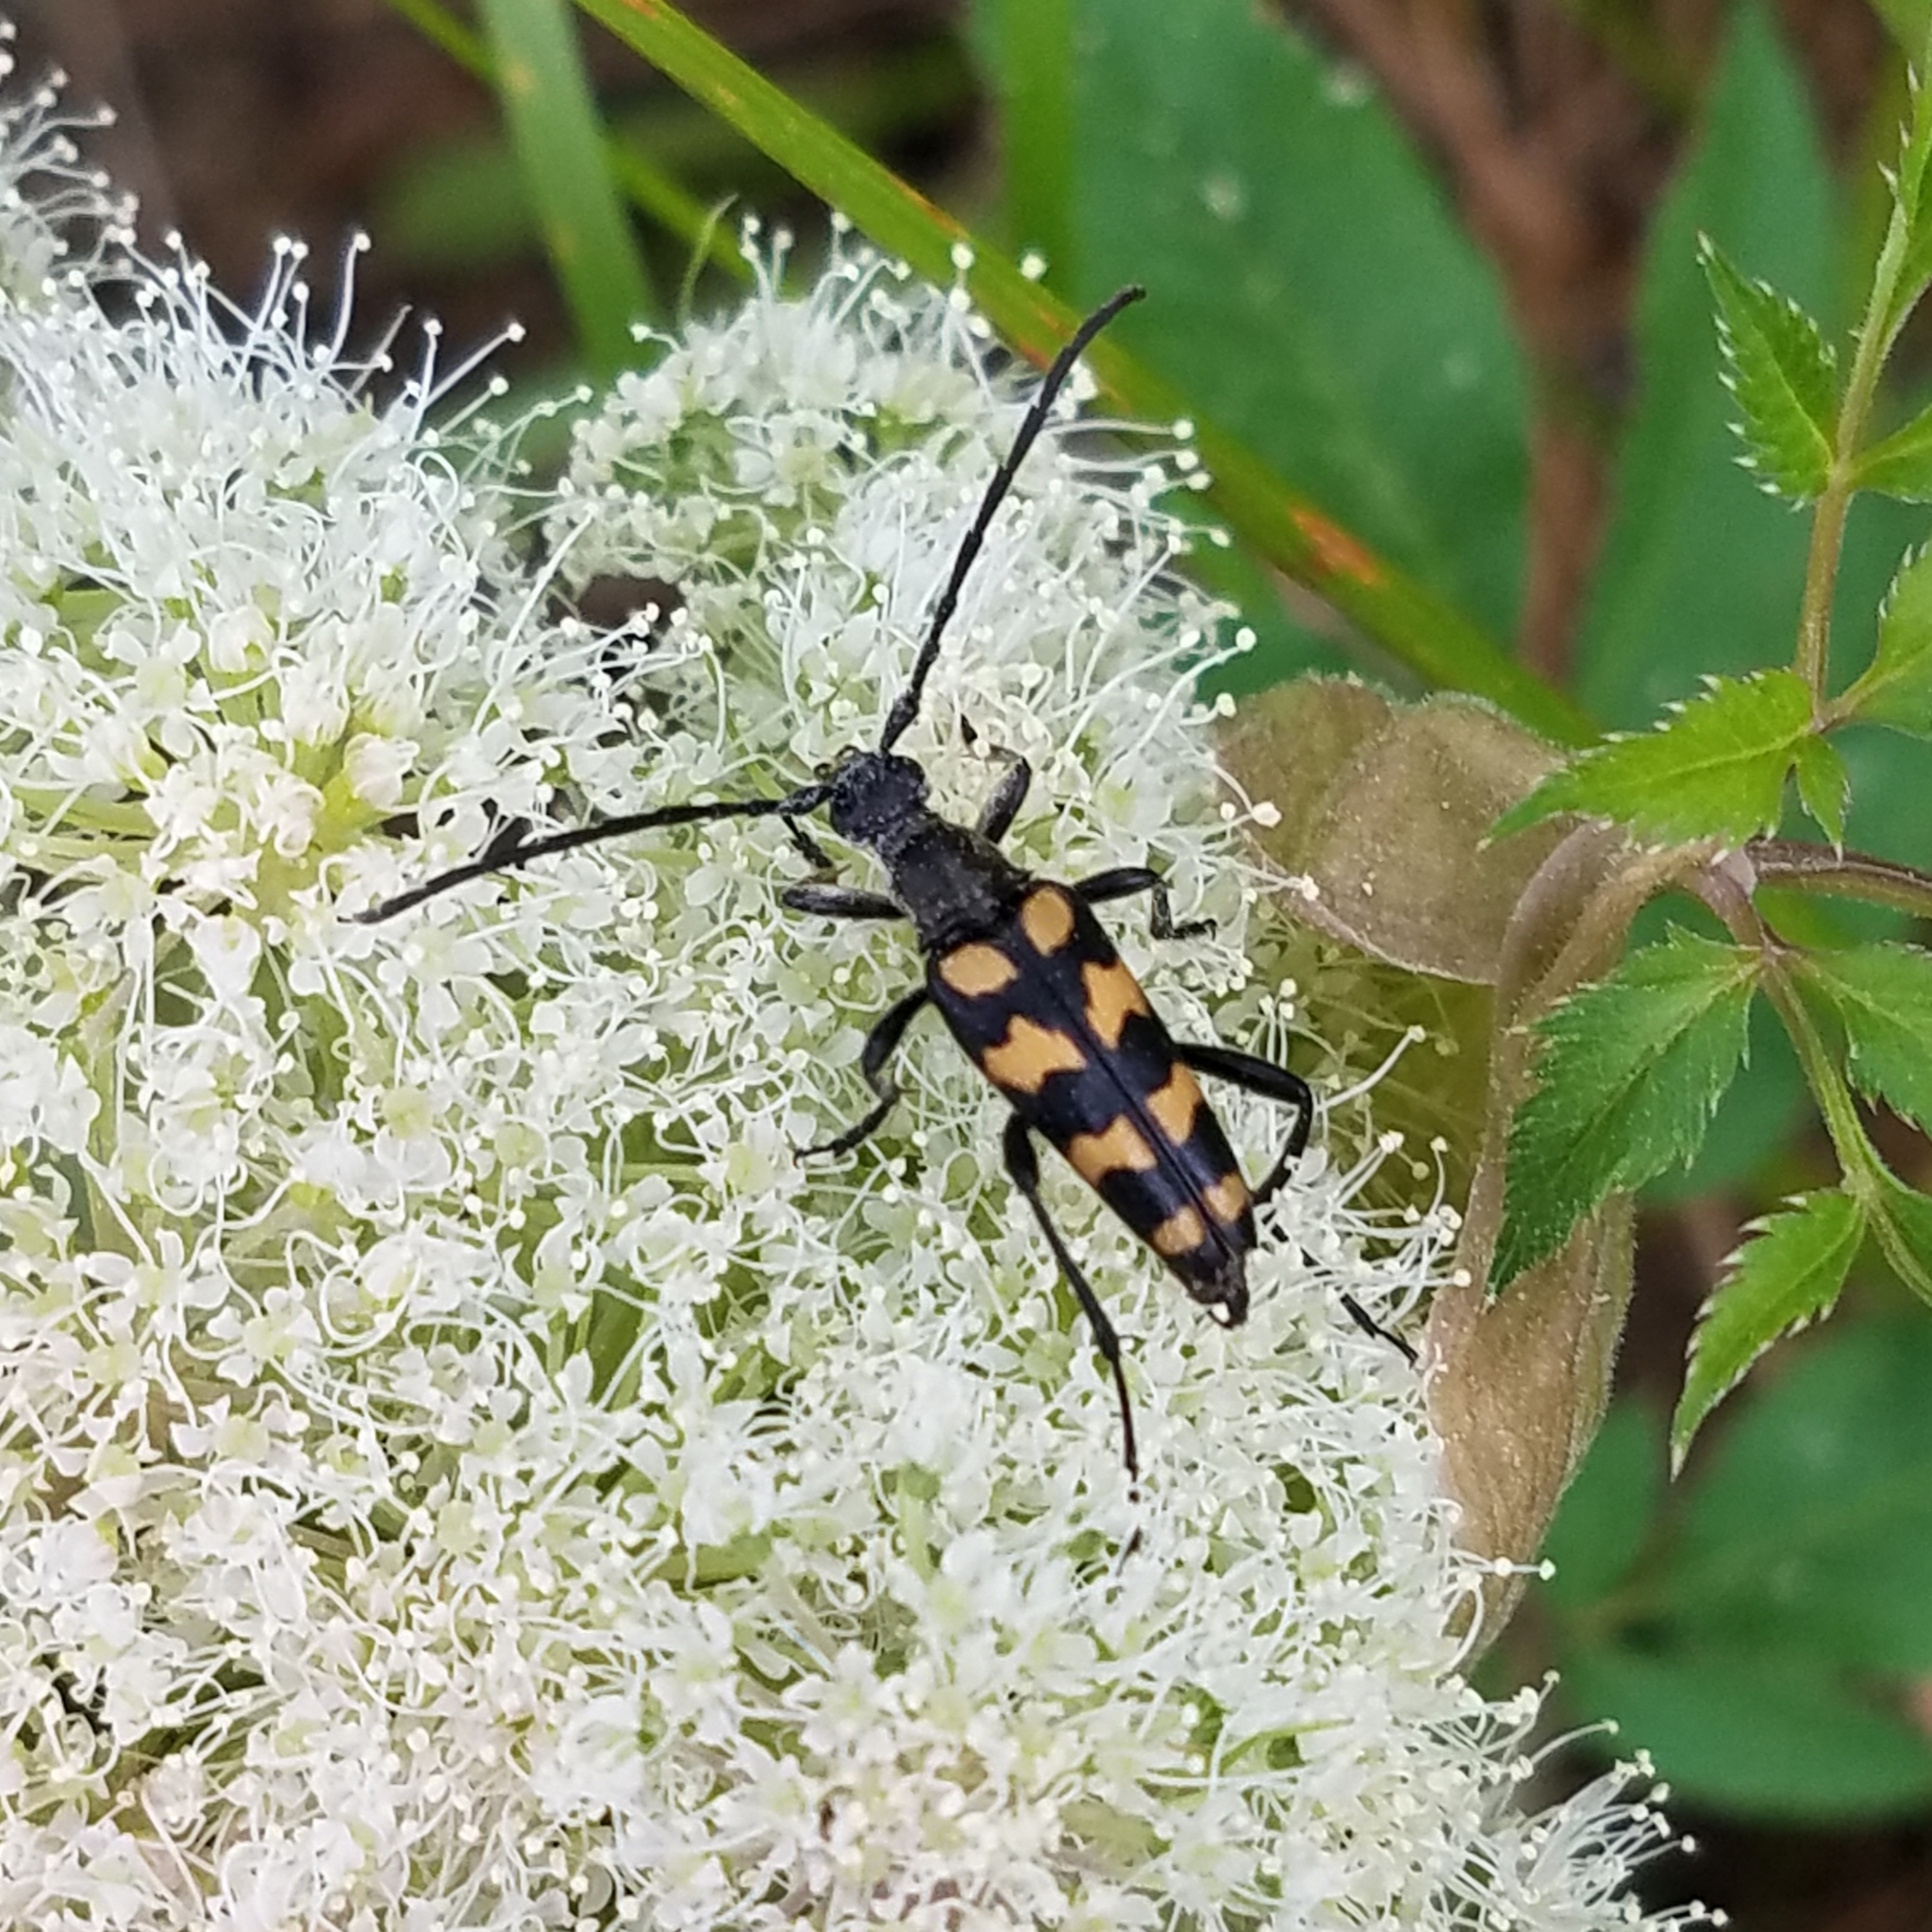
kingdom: Animalia
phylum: Arthropoda
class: Insecta
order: Coleoptera
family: Cerambycidae
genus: Leptura
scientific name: Leptura quadrifasciata
